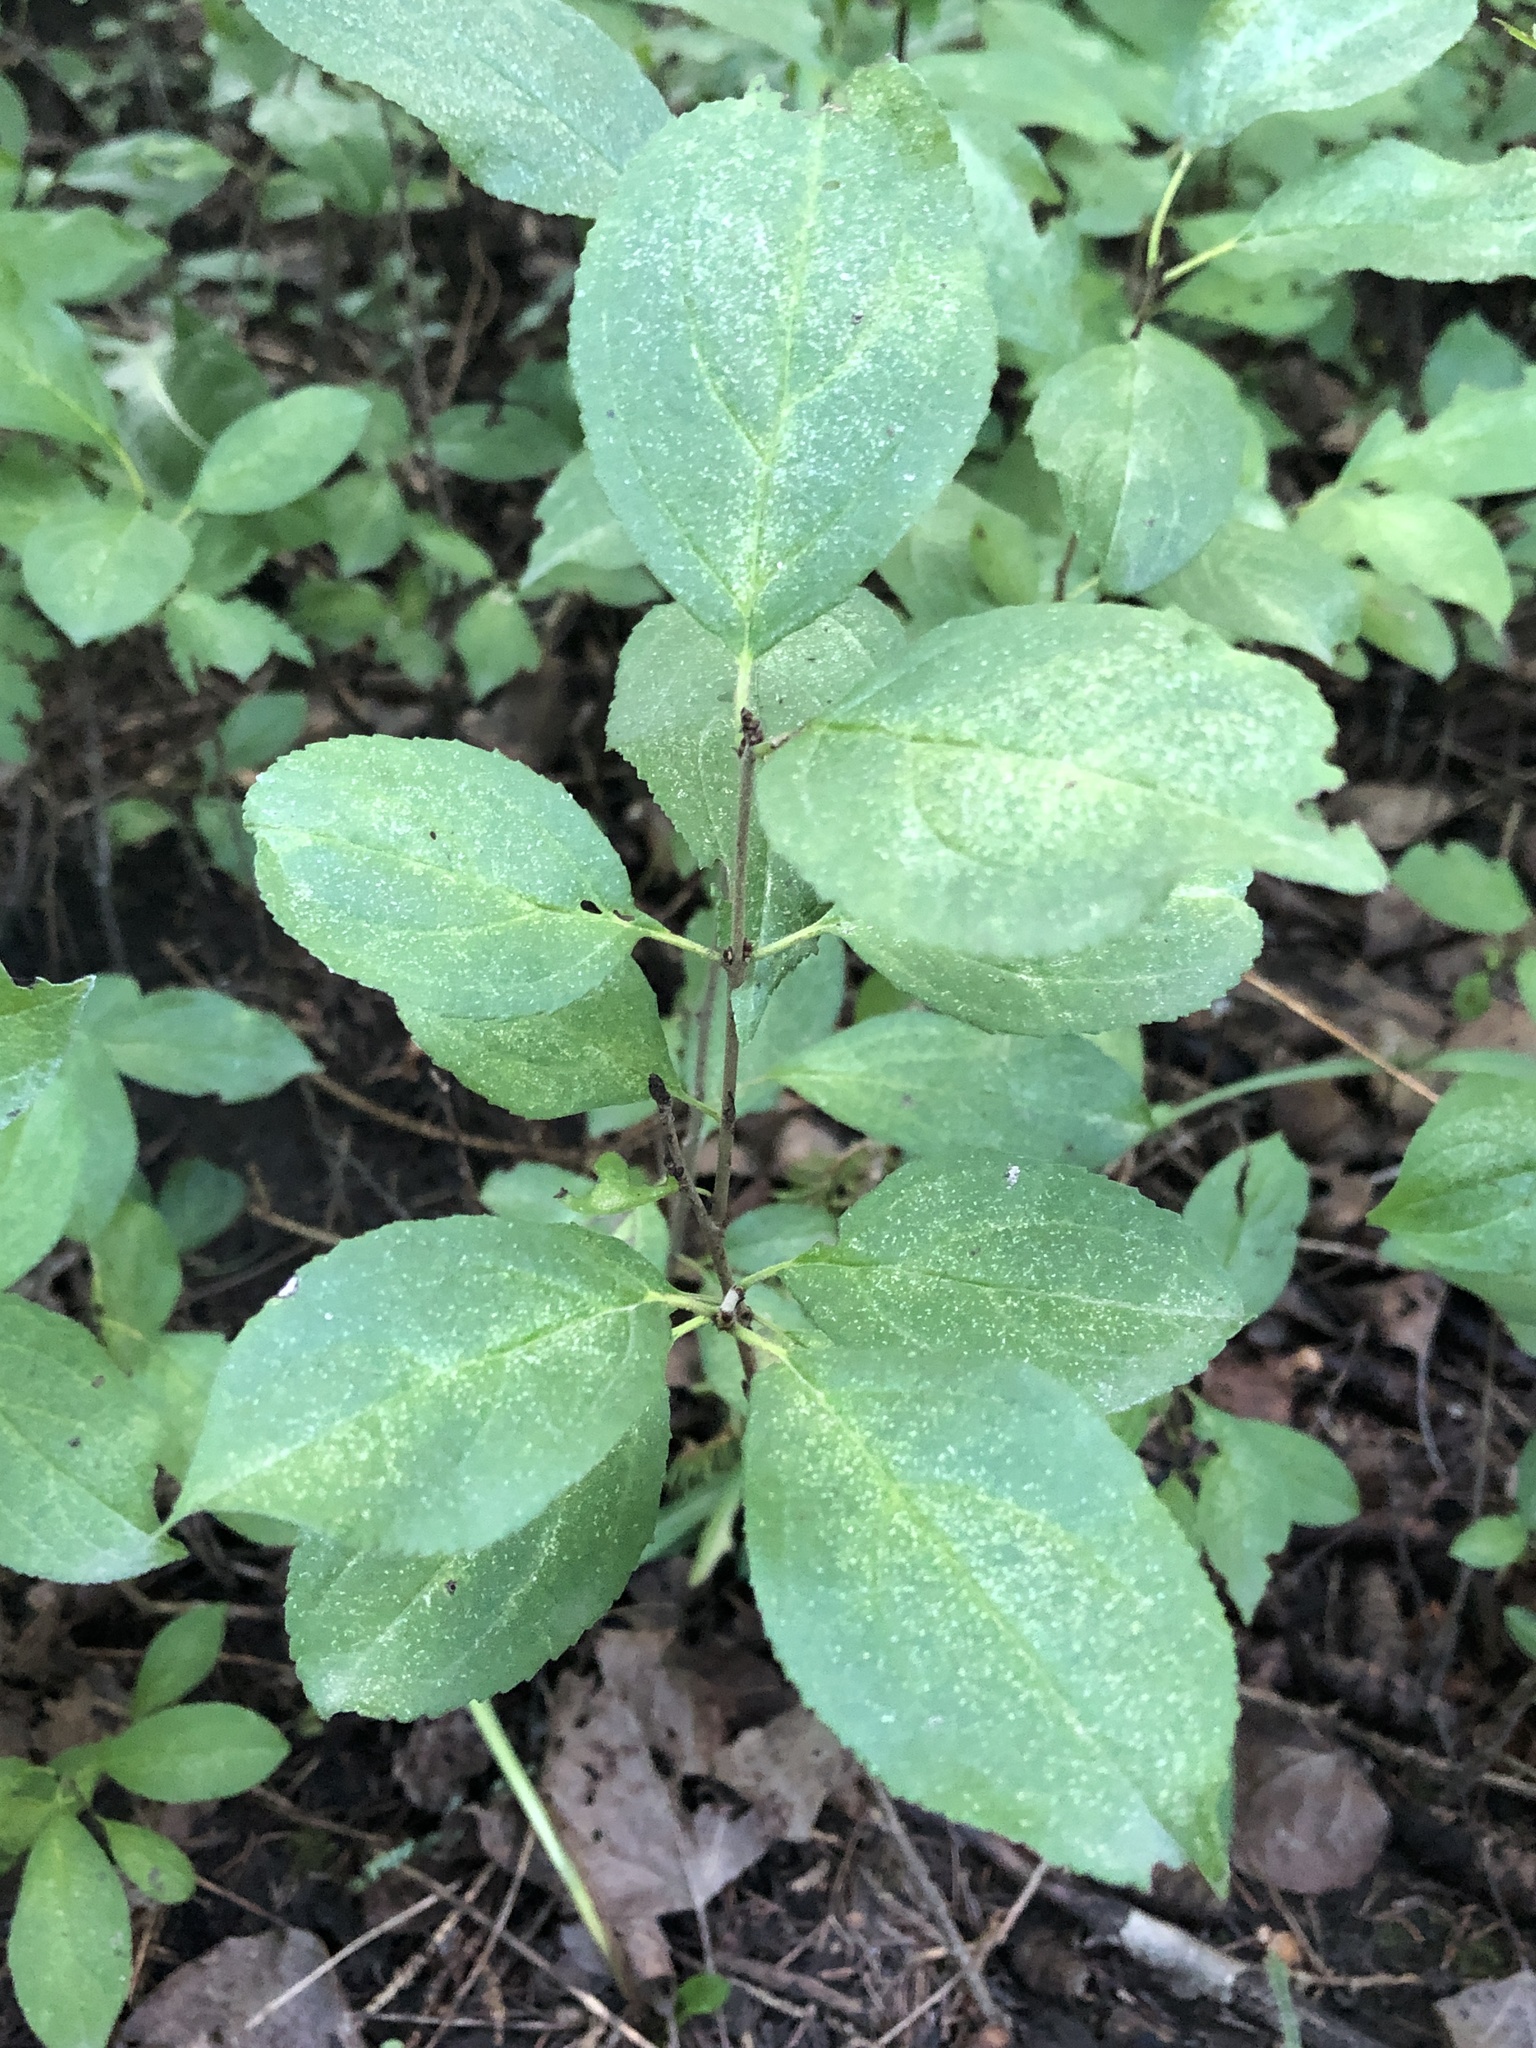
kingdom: Plantae
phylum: Tracheophyta
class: Magnoliopsida
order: Rosales
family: Rhamnaceae
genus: Rhamnus
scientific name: Rhamnus cathartica
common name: Common buckthorn
